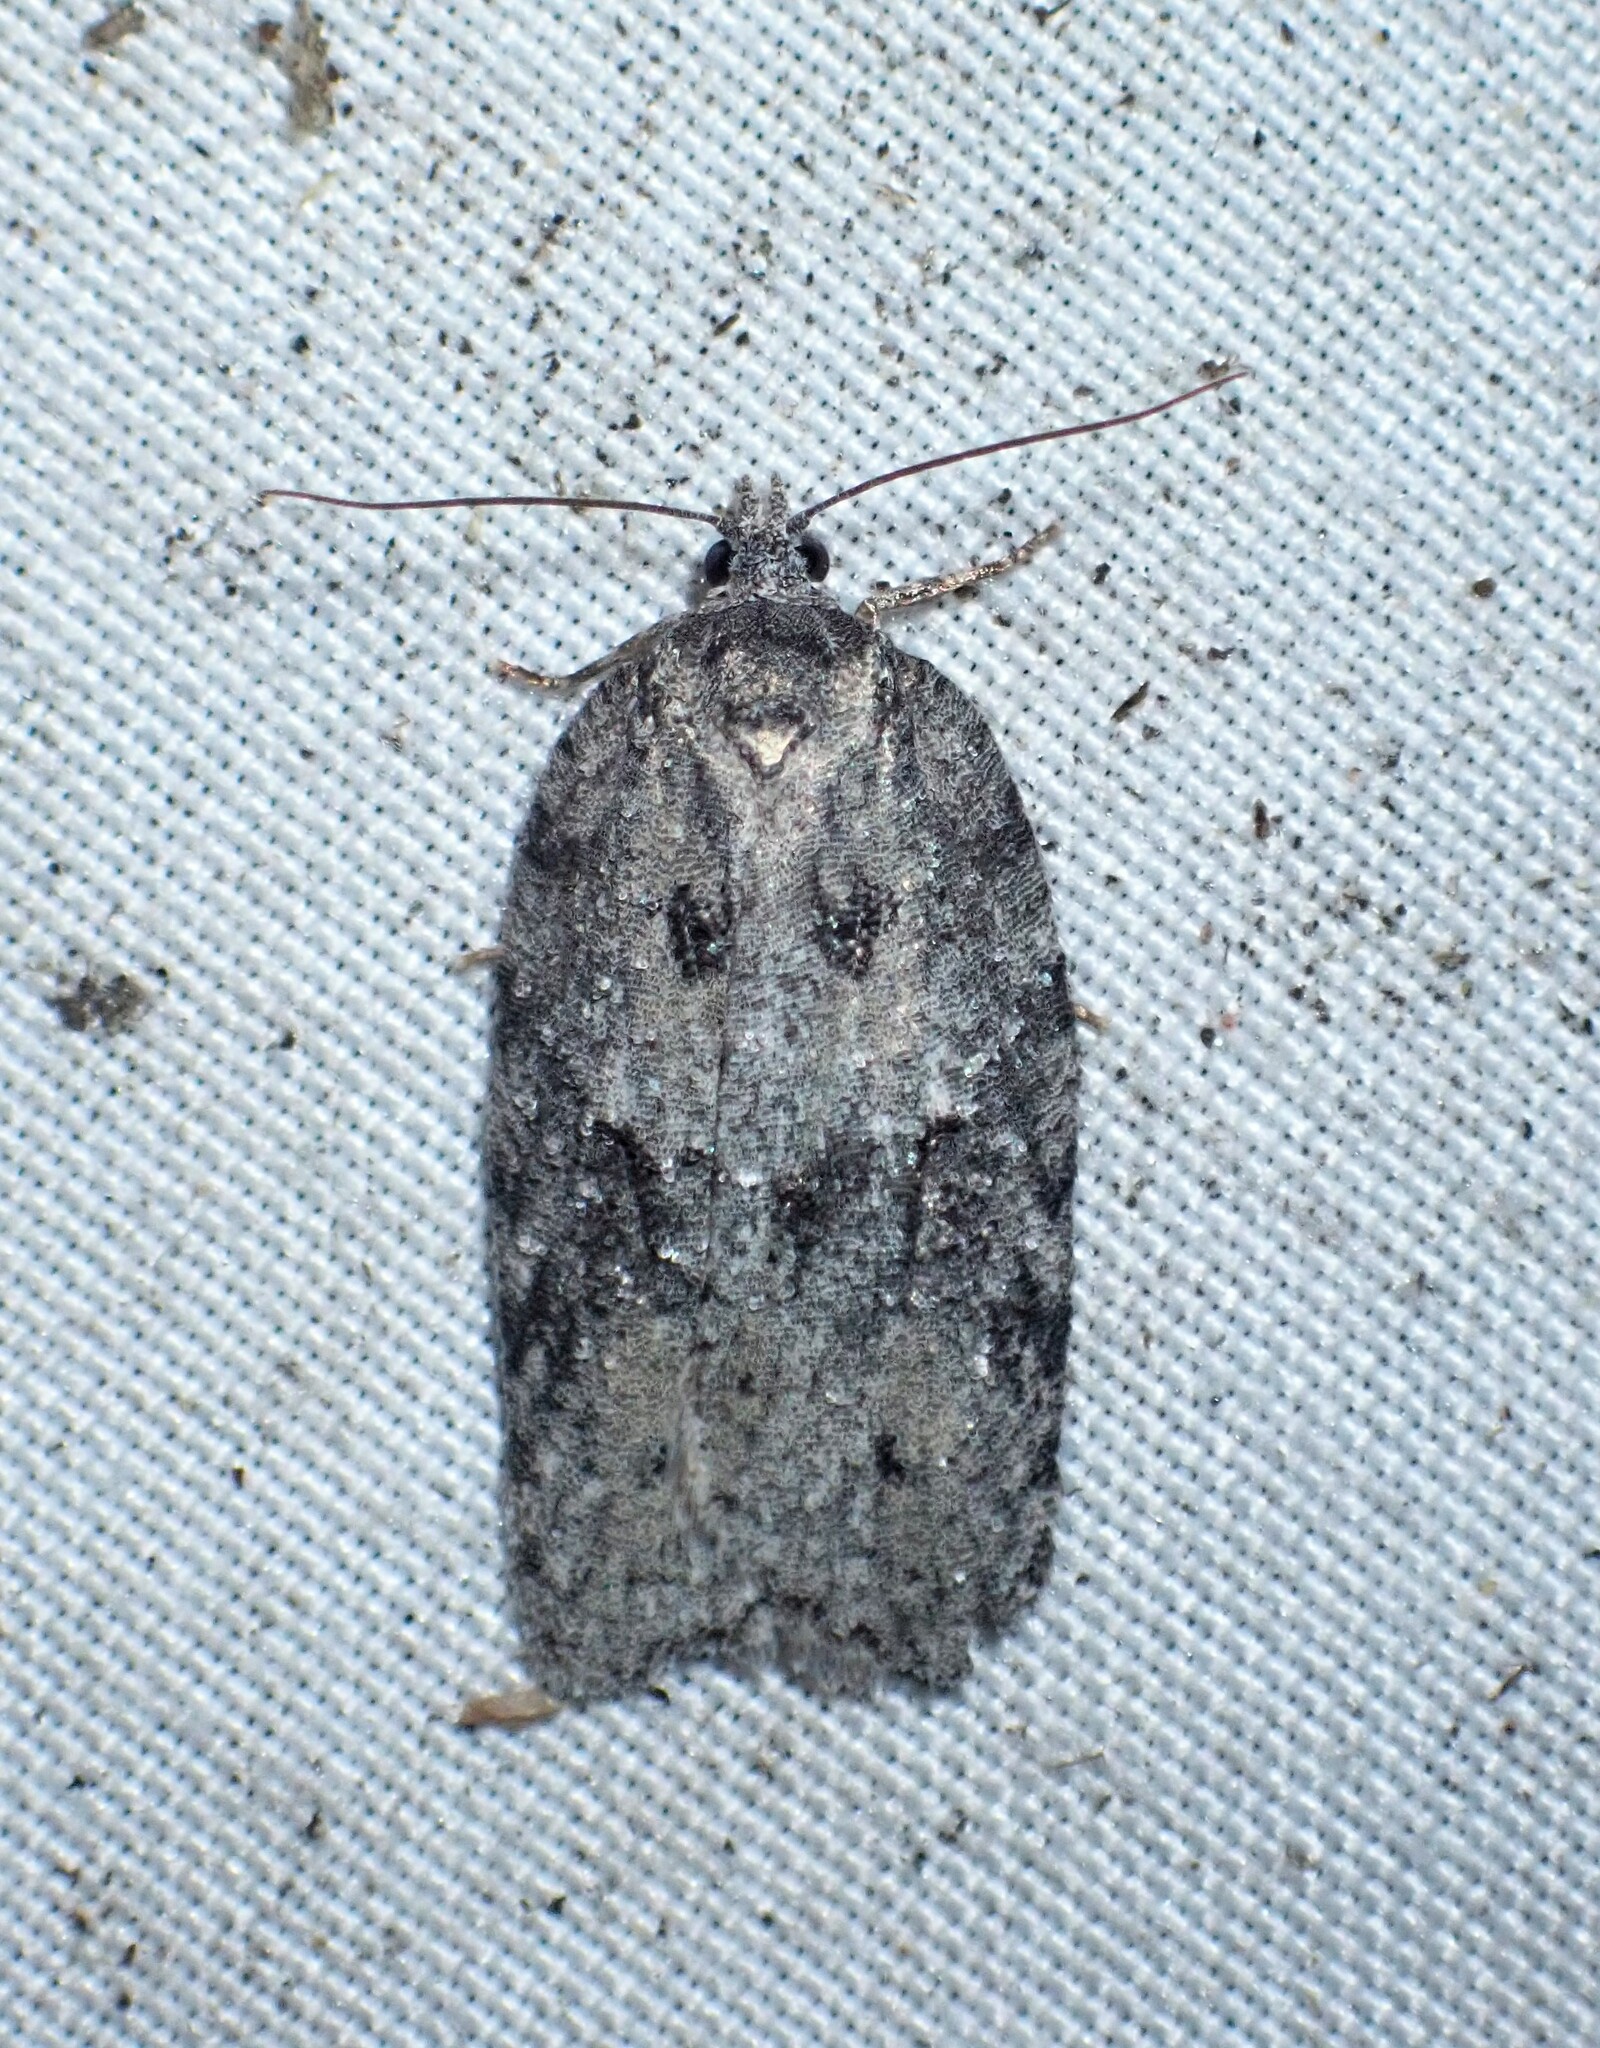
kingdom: Animalia
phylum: Arthropoda
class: Insecta
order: Lepidoptera
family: Tortricidae
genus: Acleris
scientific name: Acleris nigrolinea
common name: Black-lined acleris
